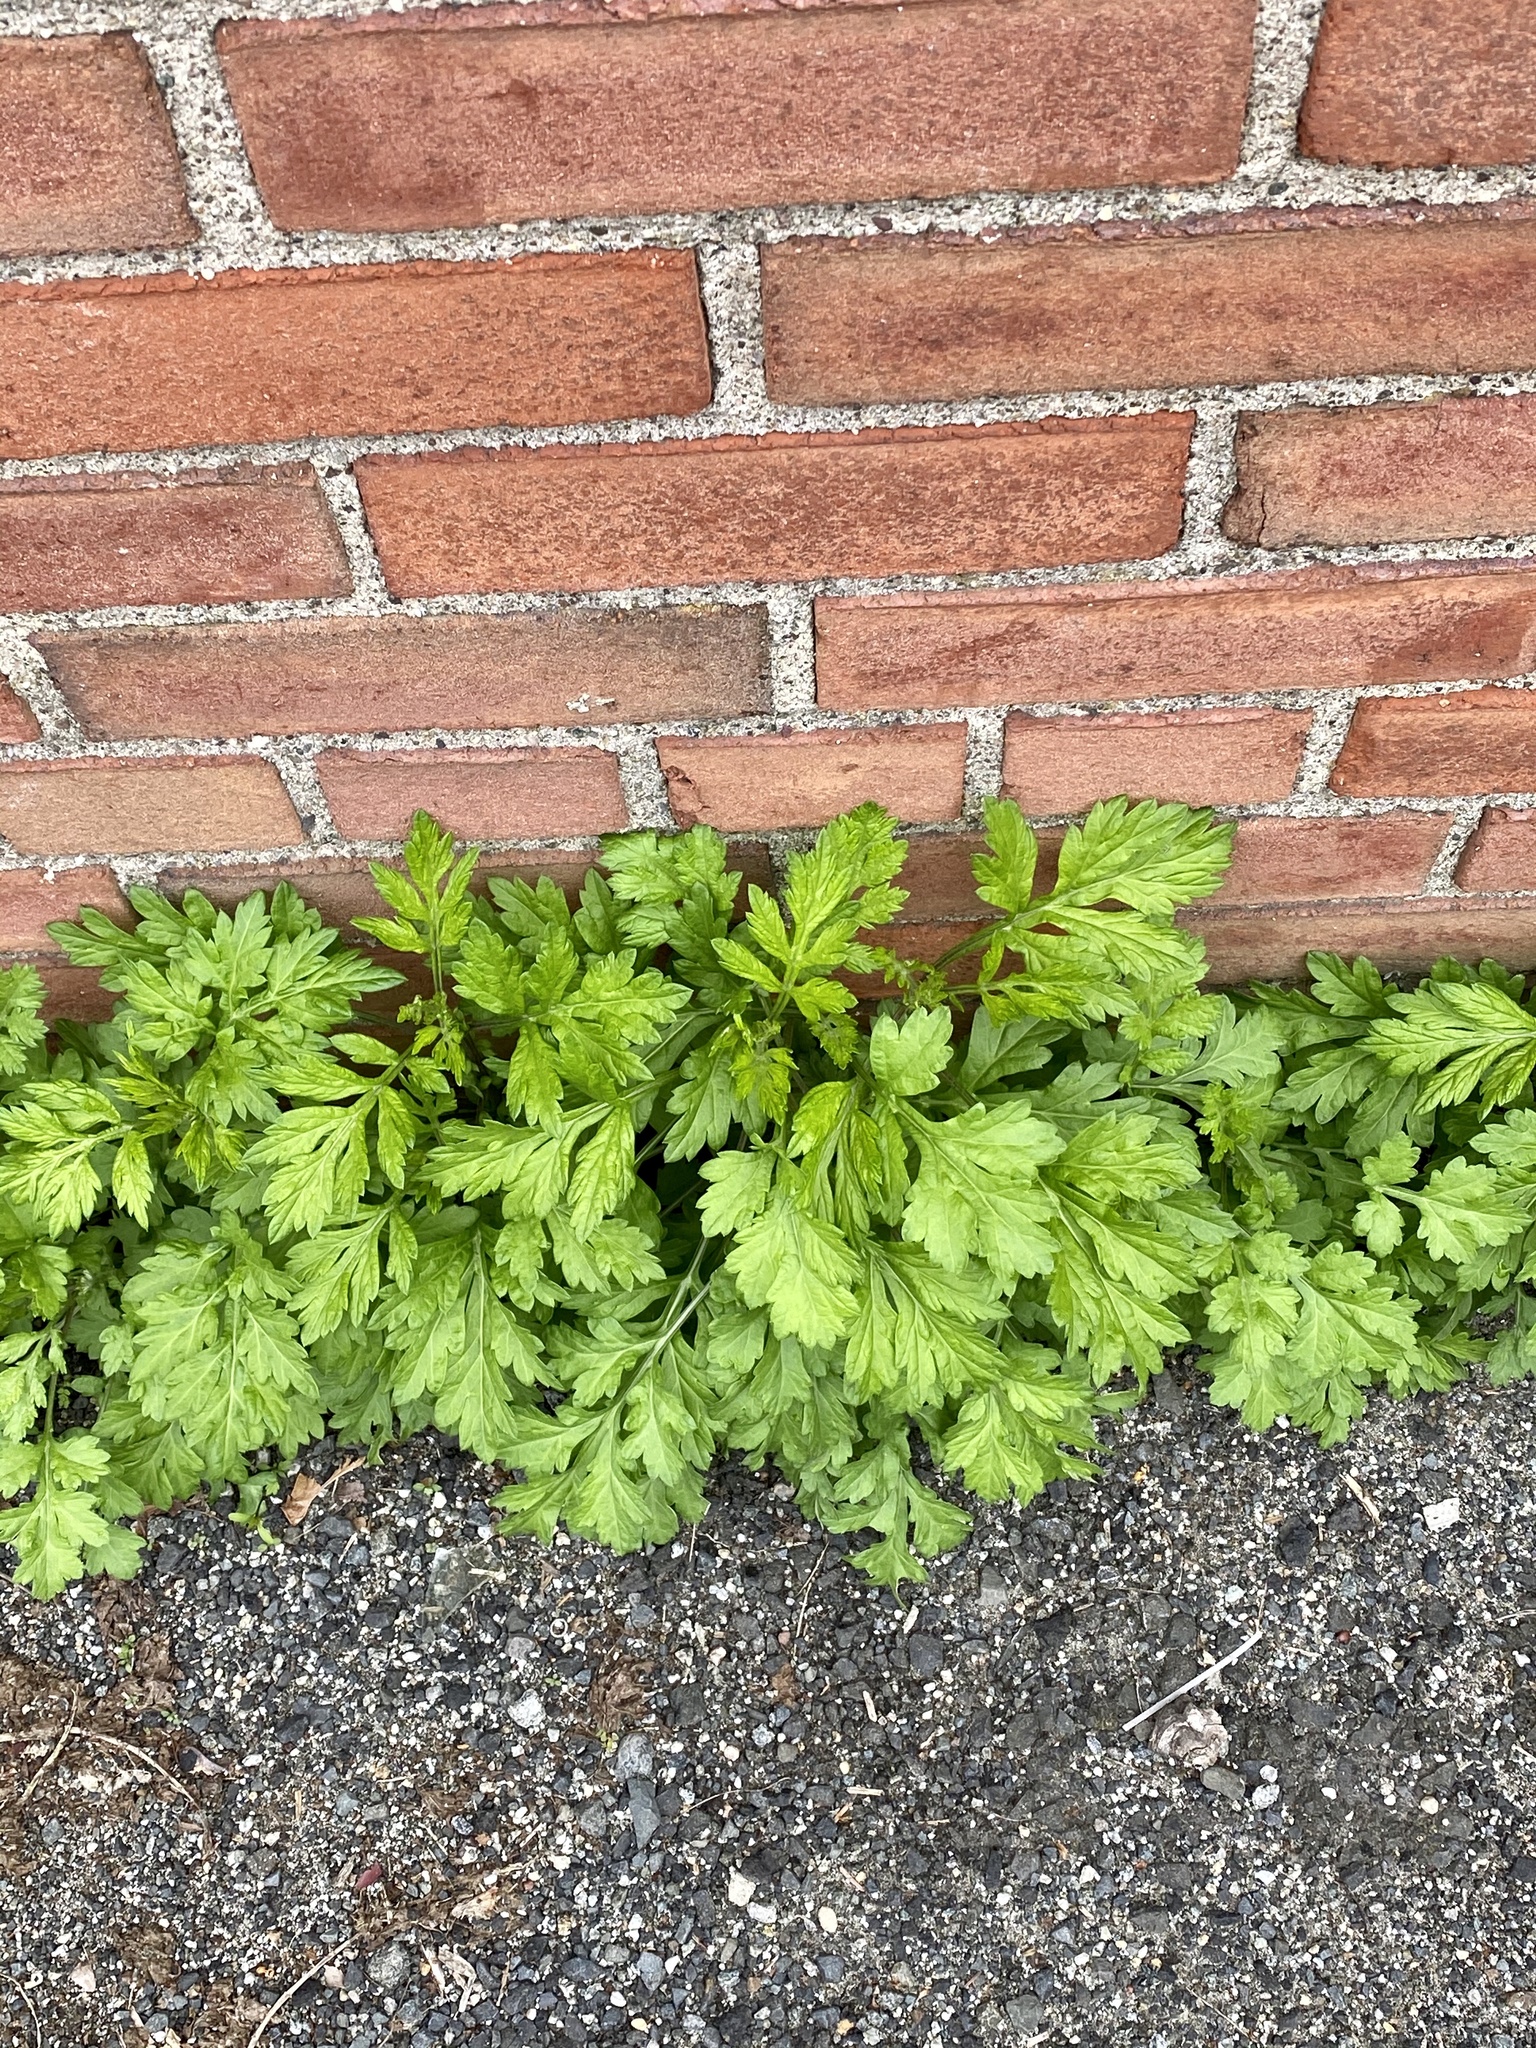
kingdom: Plantae
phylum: Tracheophyta
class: Magnoliopsida
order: Asterales
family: Asteraceae
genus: Artemisia
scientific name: Artemisia vulgaris
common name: Mugwort
